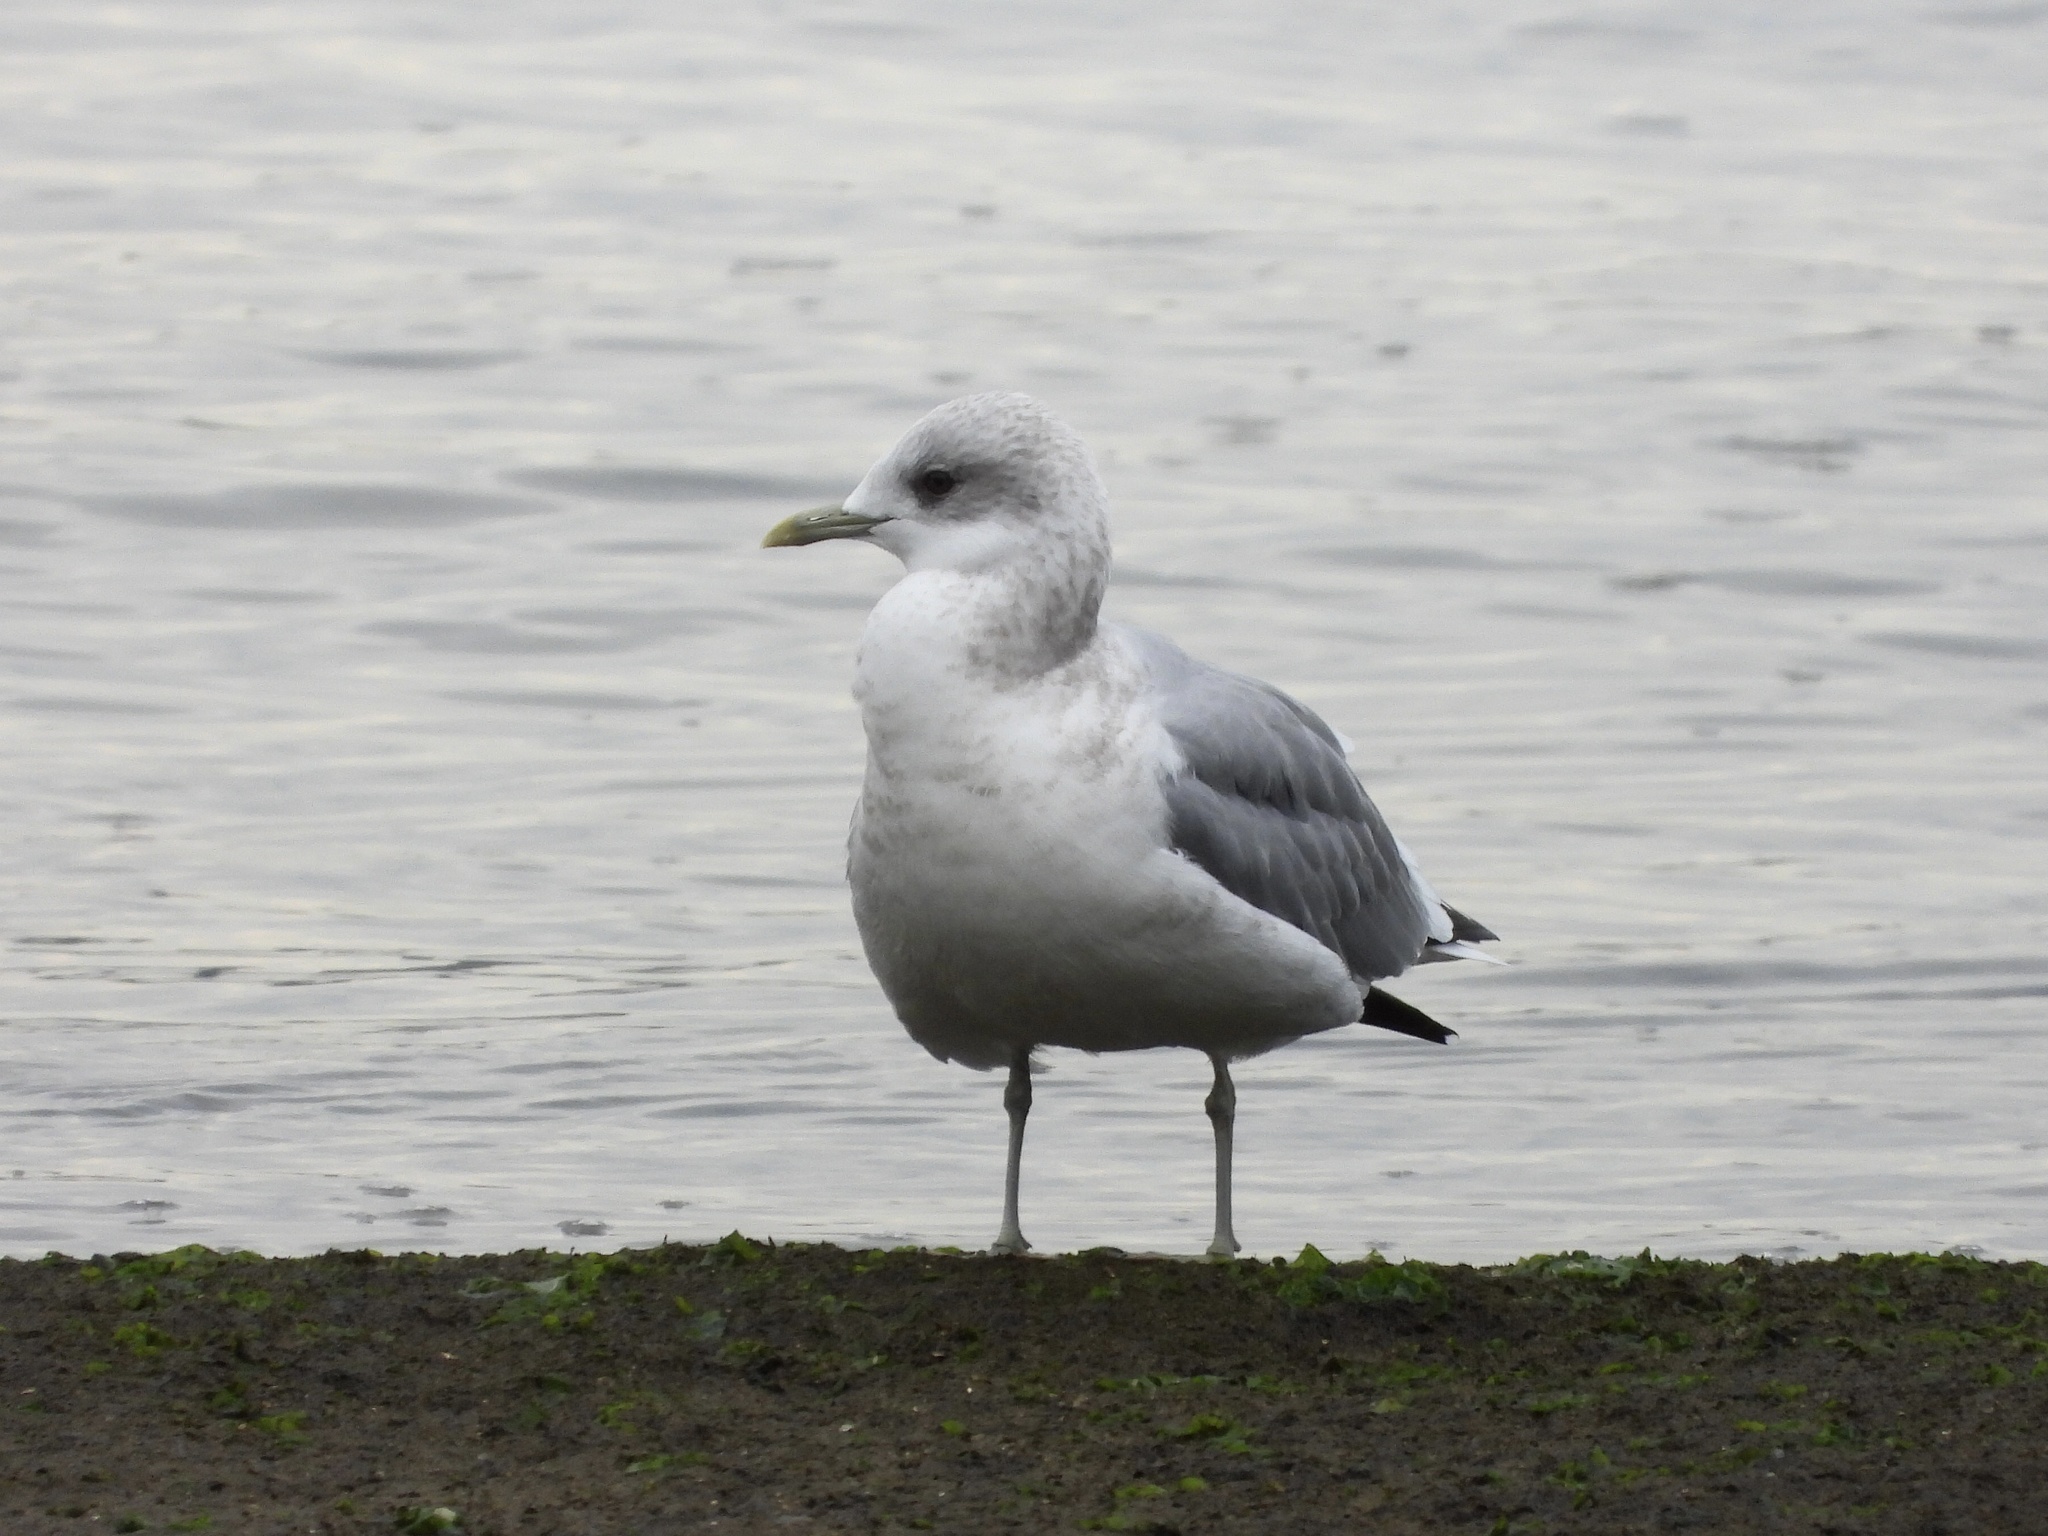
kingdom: Animalia
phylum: Chordata
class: Aves
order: Charadriiformes
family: Laridae
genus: Larus
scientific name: Larus brachyrhynchus
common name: Short-billed gull
